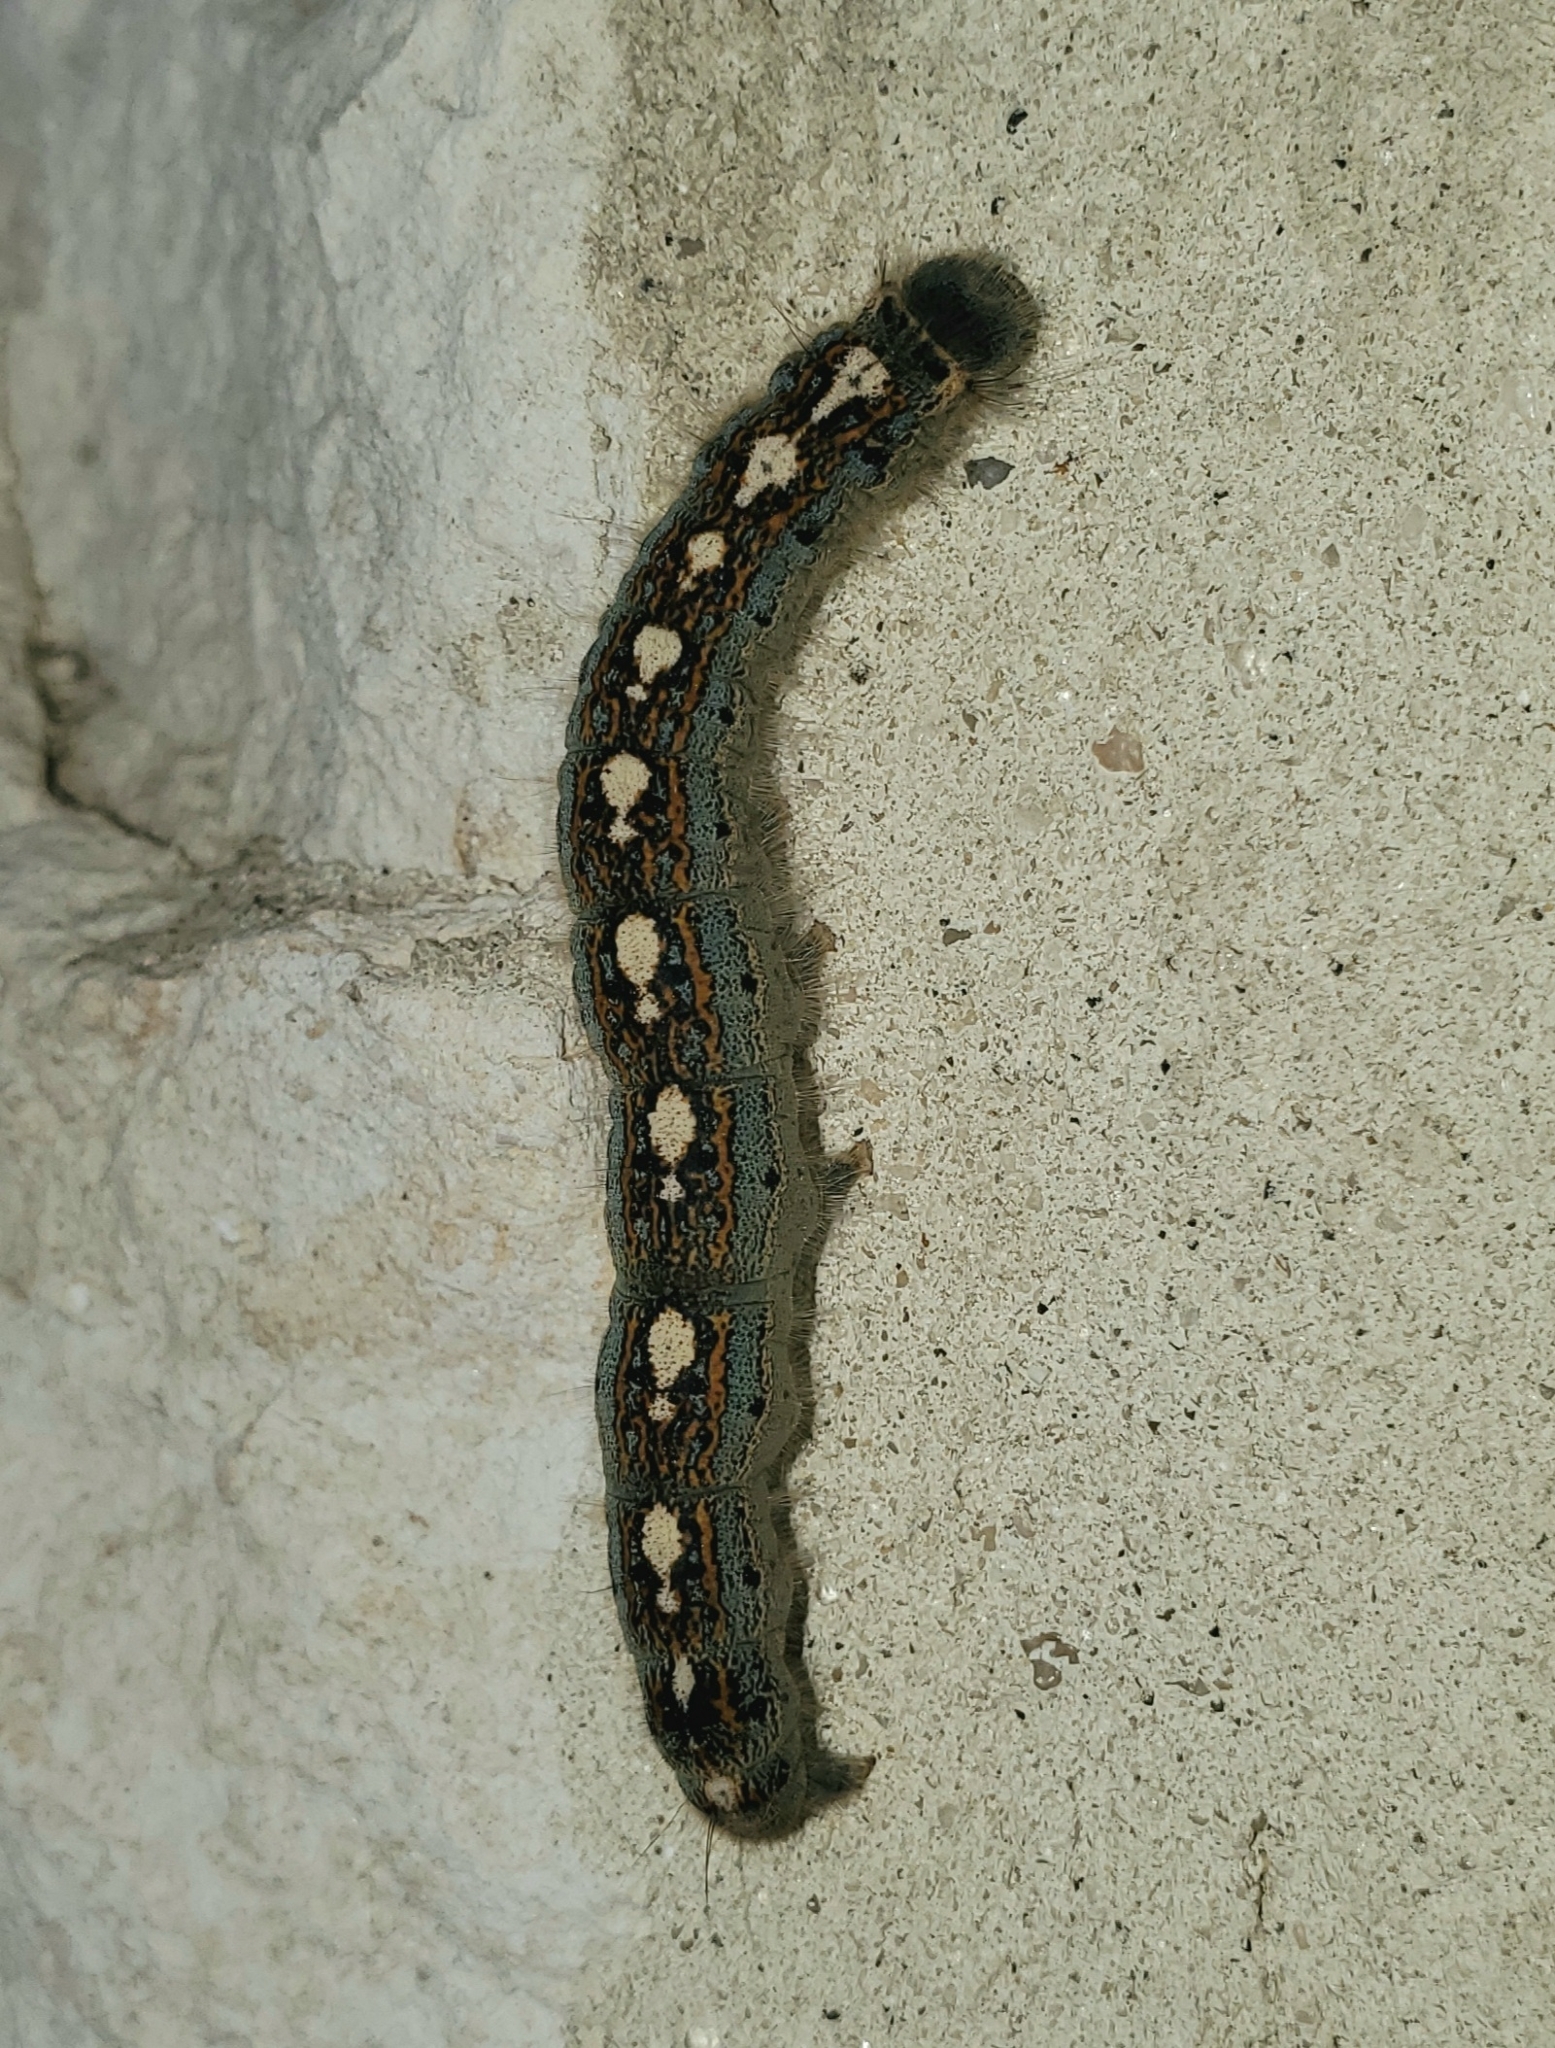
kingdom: Animalia
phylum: Arthropoda
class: Insecta
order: Lepidoptera
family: Lasiocampidae
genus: Malacosoma
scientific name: Malacosoma disstria
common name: Forest tent caterpillar
